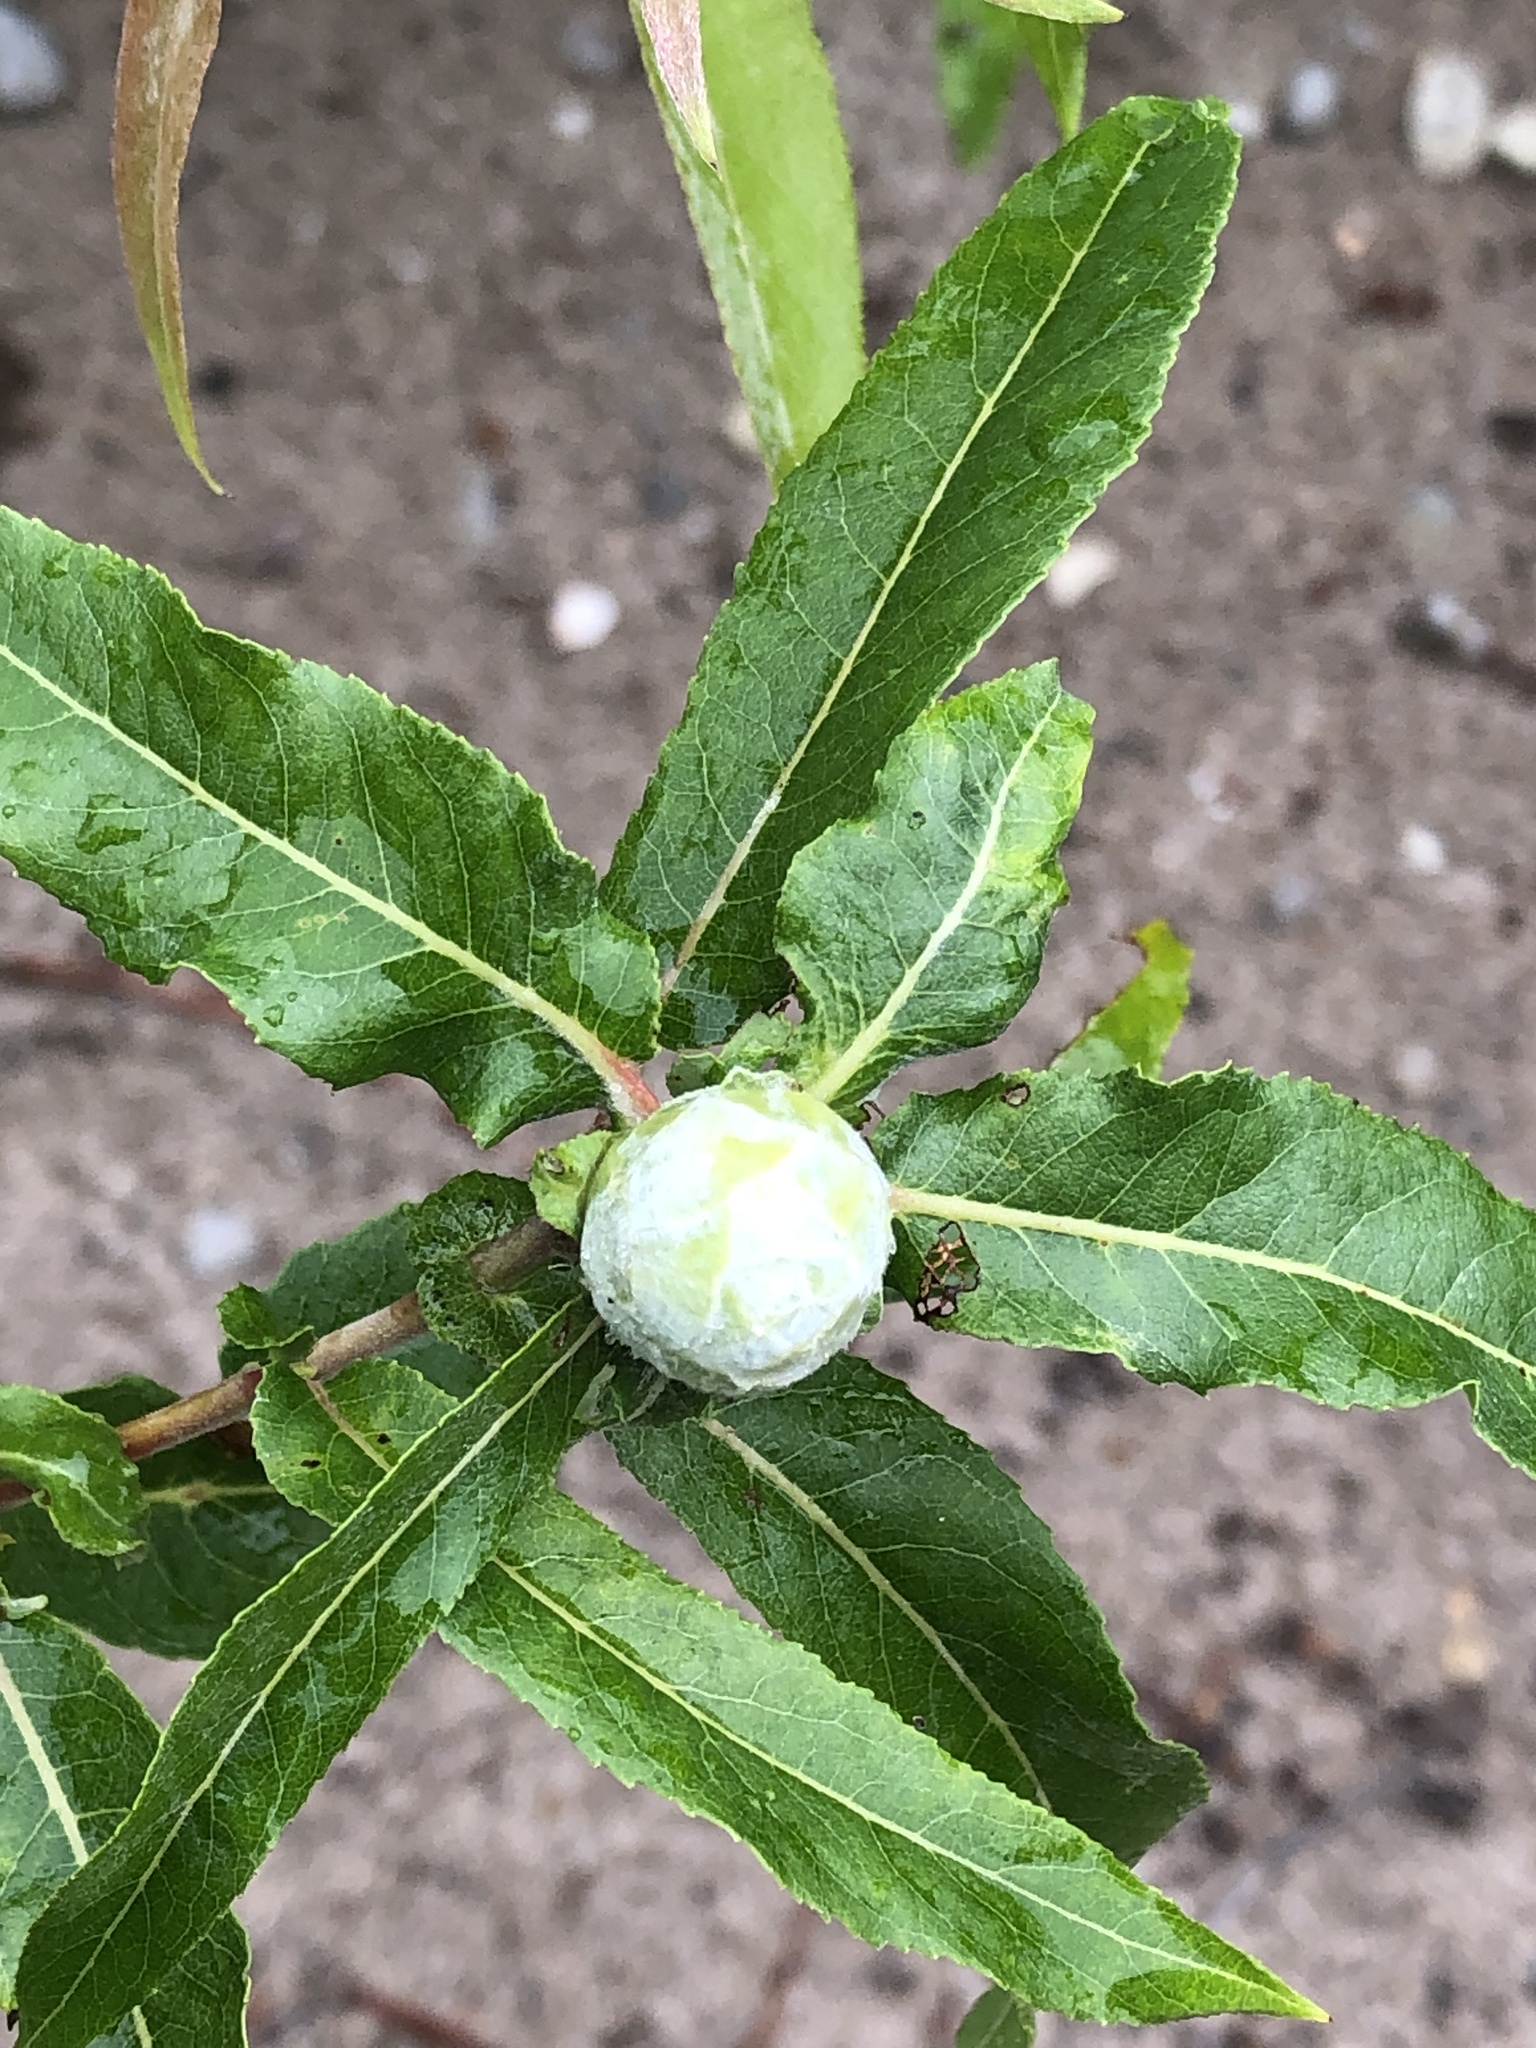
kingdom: Animalia
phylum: Arthropoda
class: Insecta
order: Diptera
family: Cecidomyiidae
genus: Rabdophaga
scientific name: Rabdophaga strobiloides
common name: Willow pinecone gall midge
